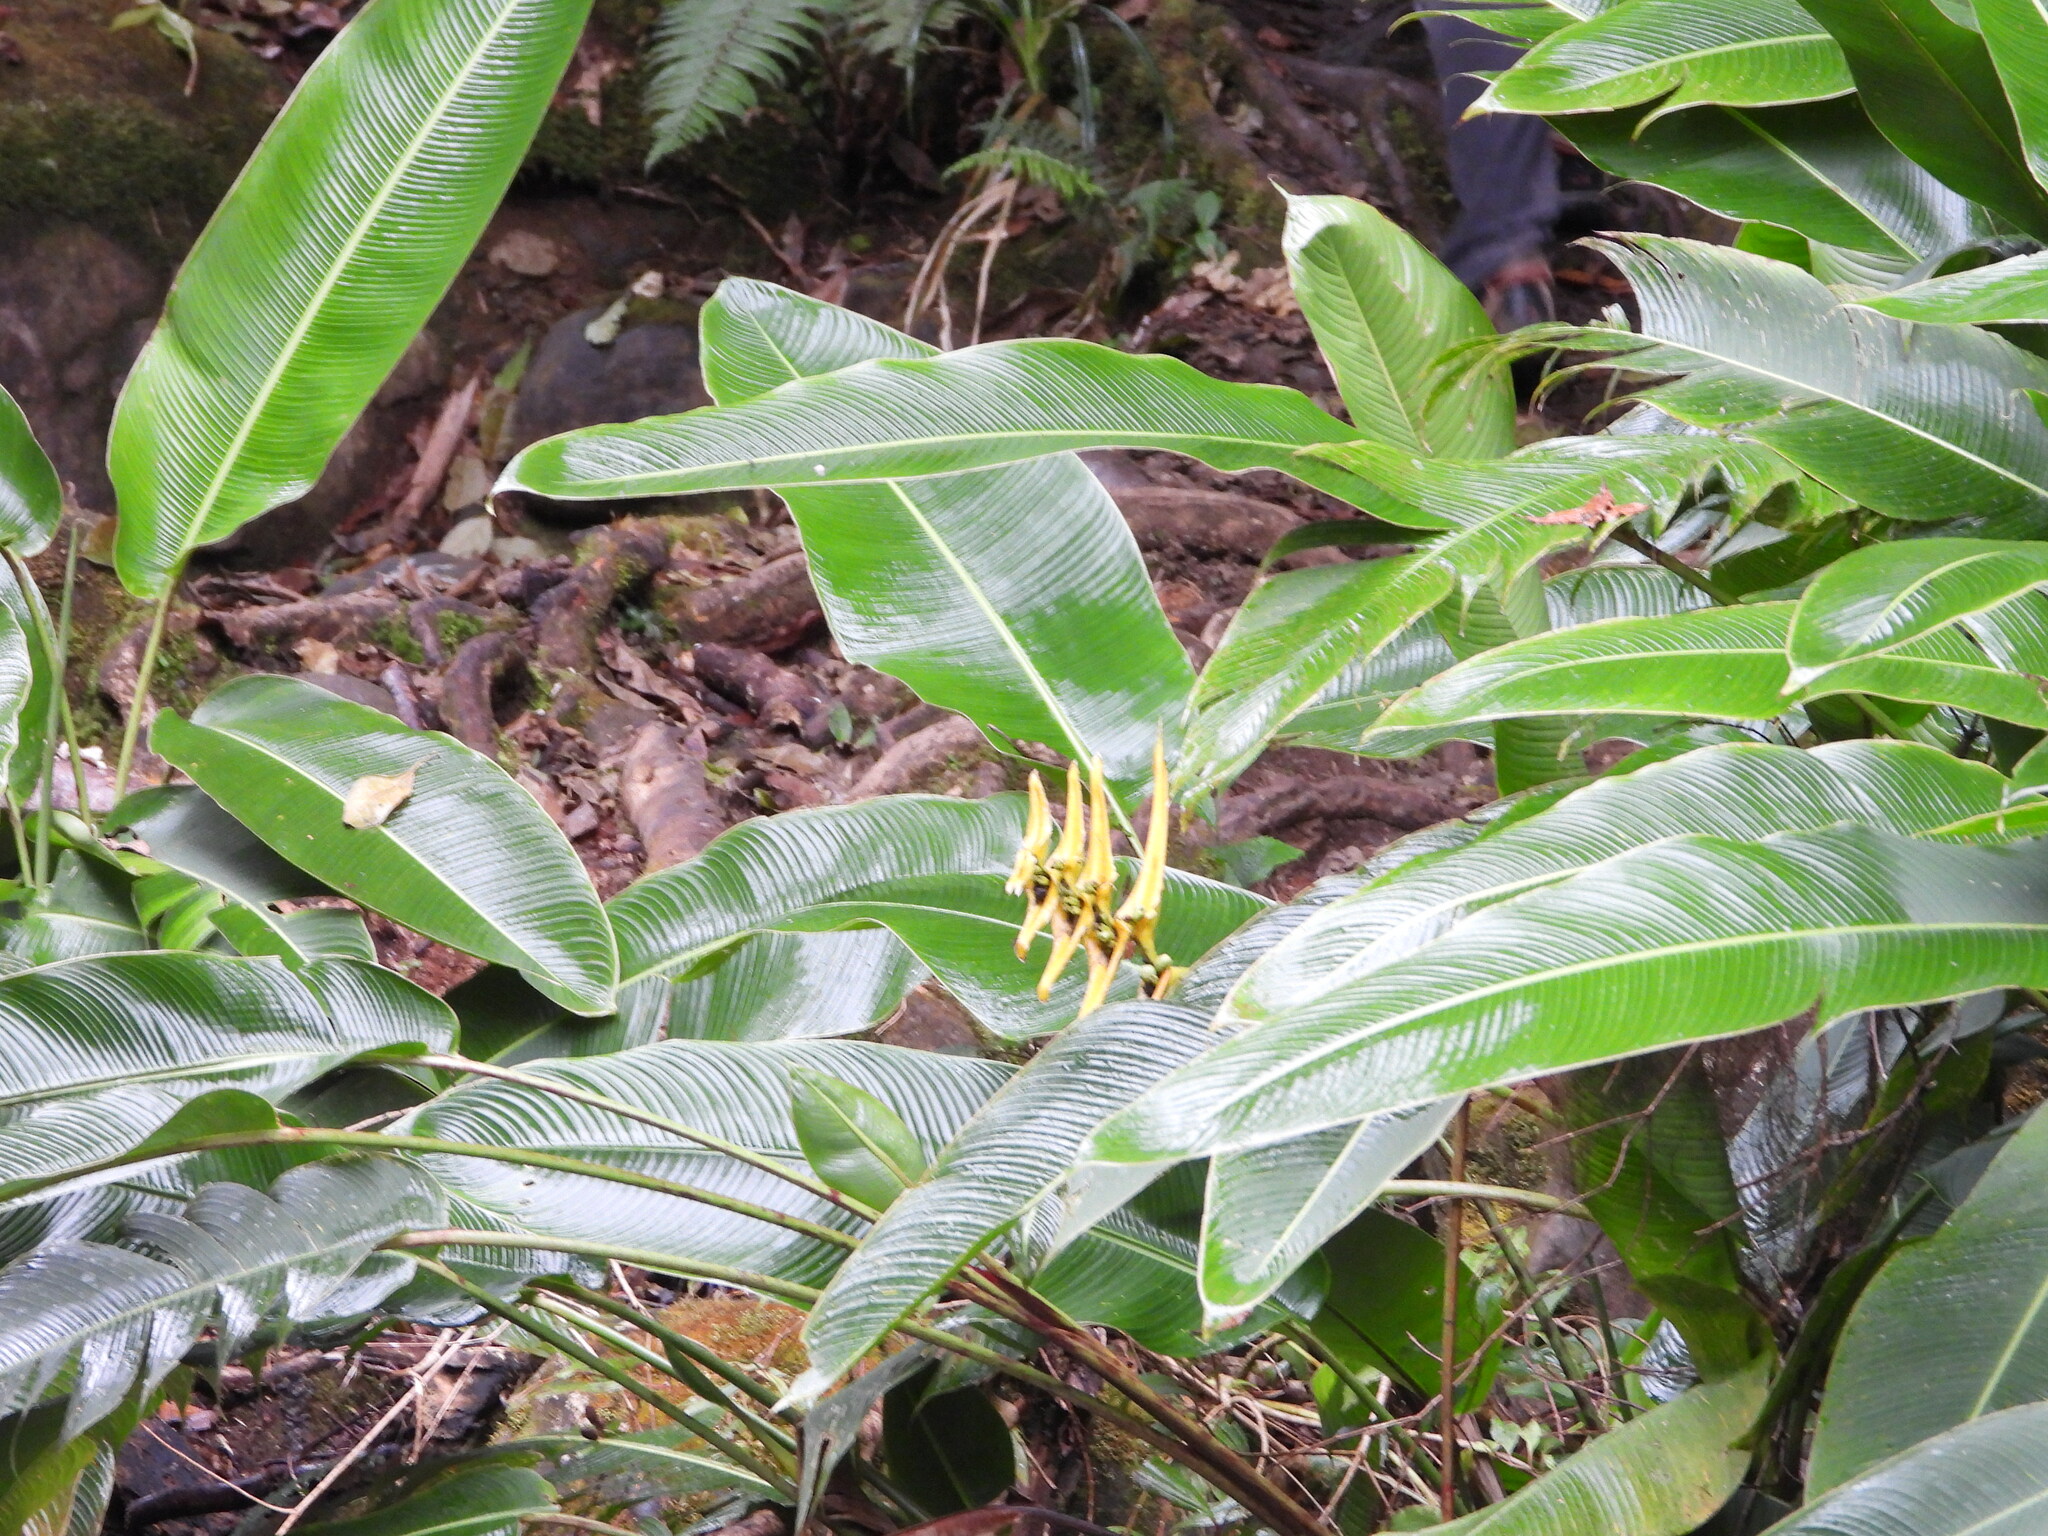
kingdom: Plantae
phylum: Tracheophyta
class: Liliopsida
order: Zingiberales
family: Heliconiaceae
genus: Heliconia
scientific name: Heliconia lankesteri
